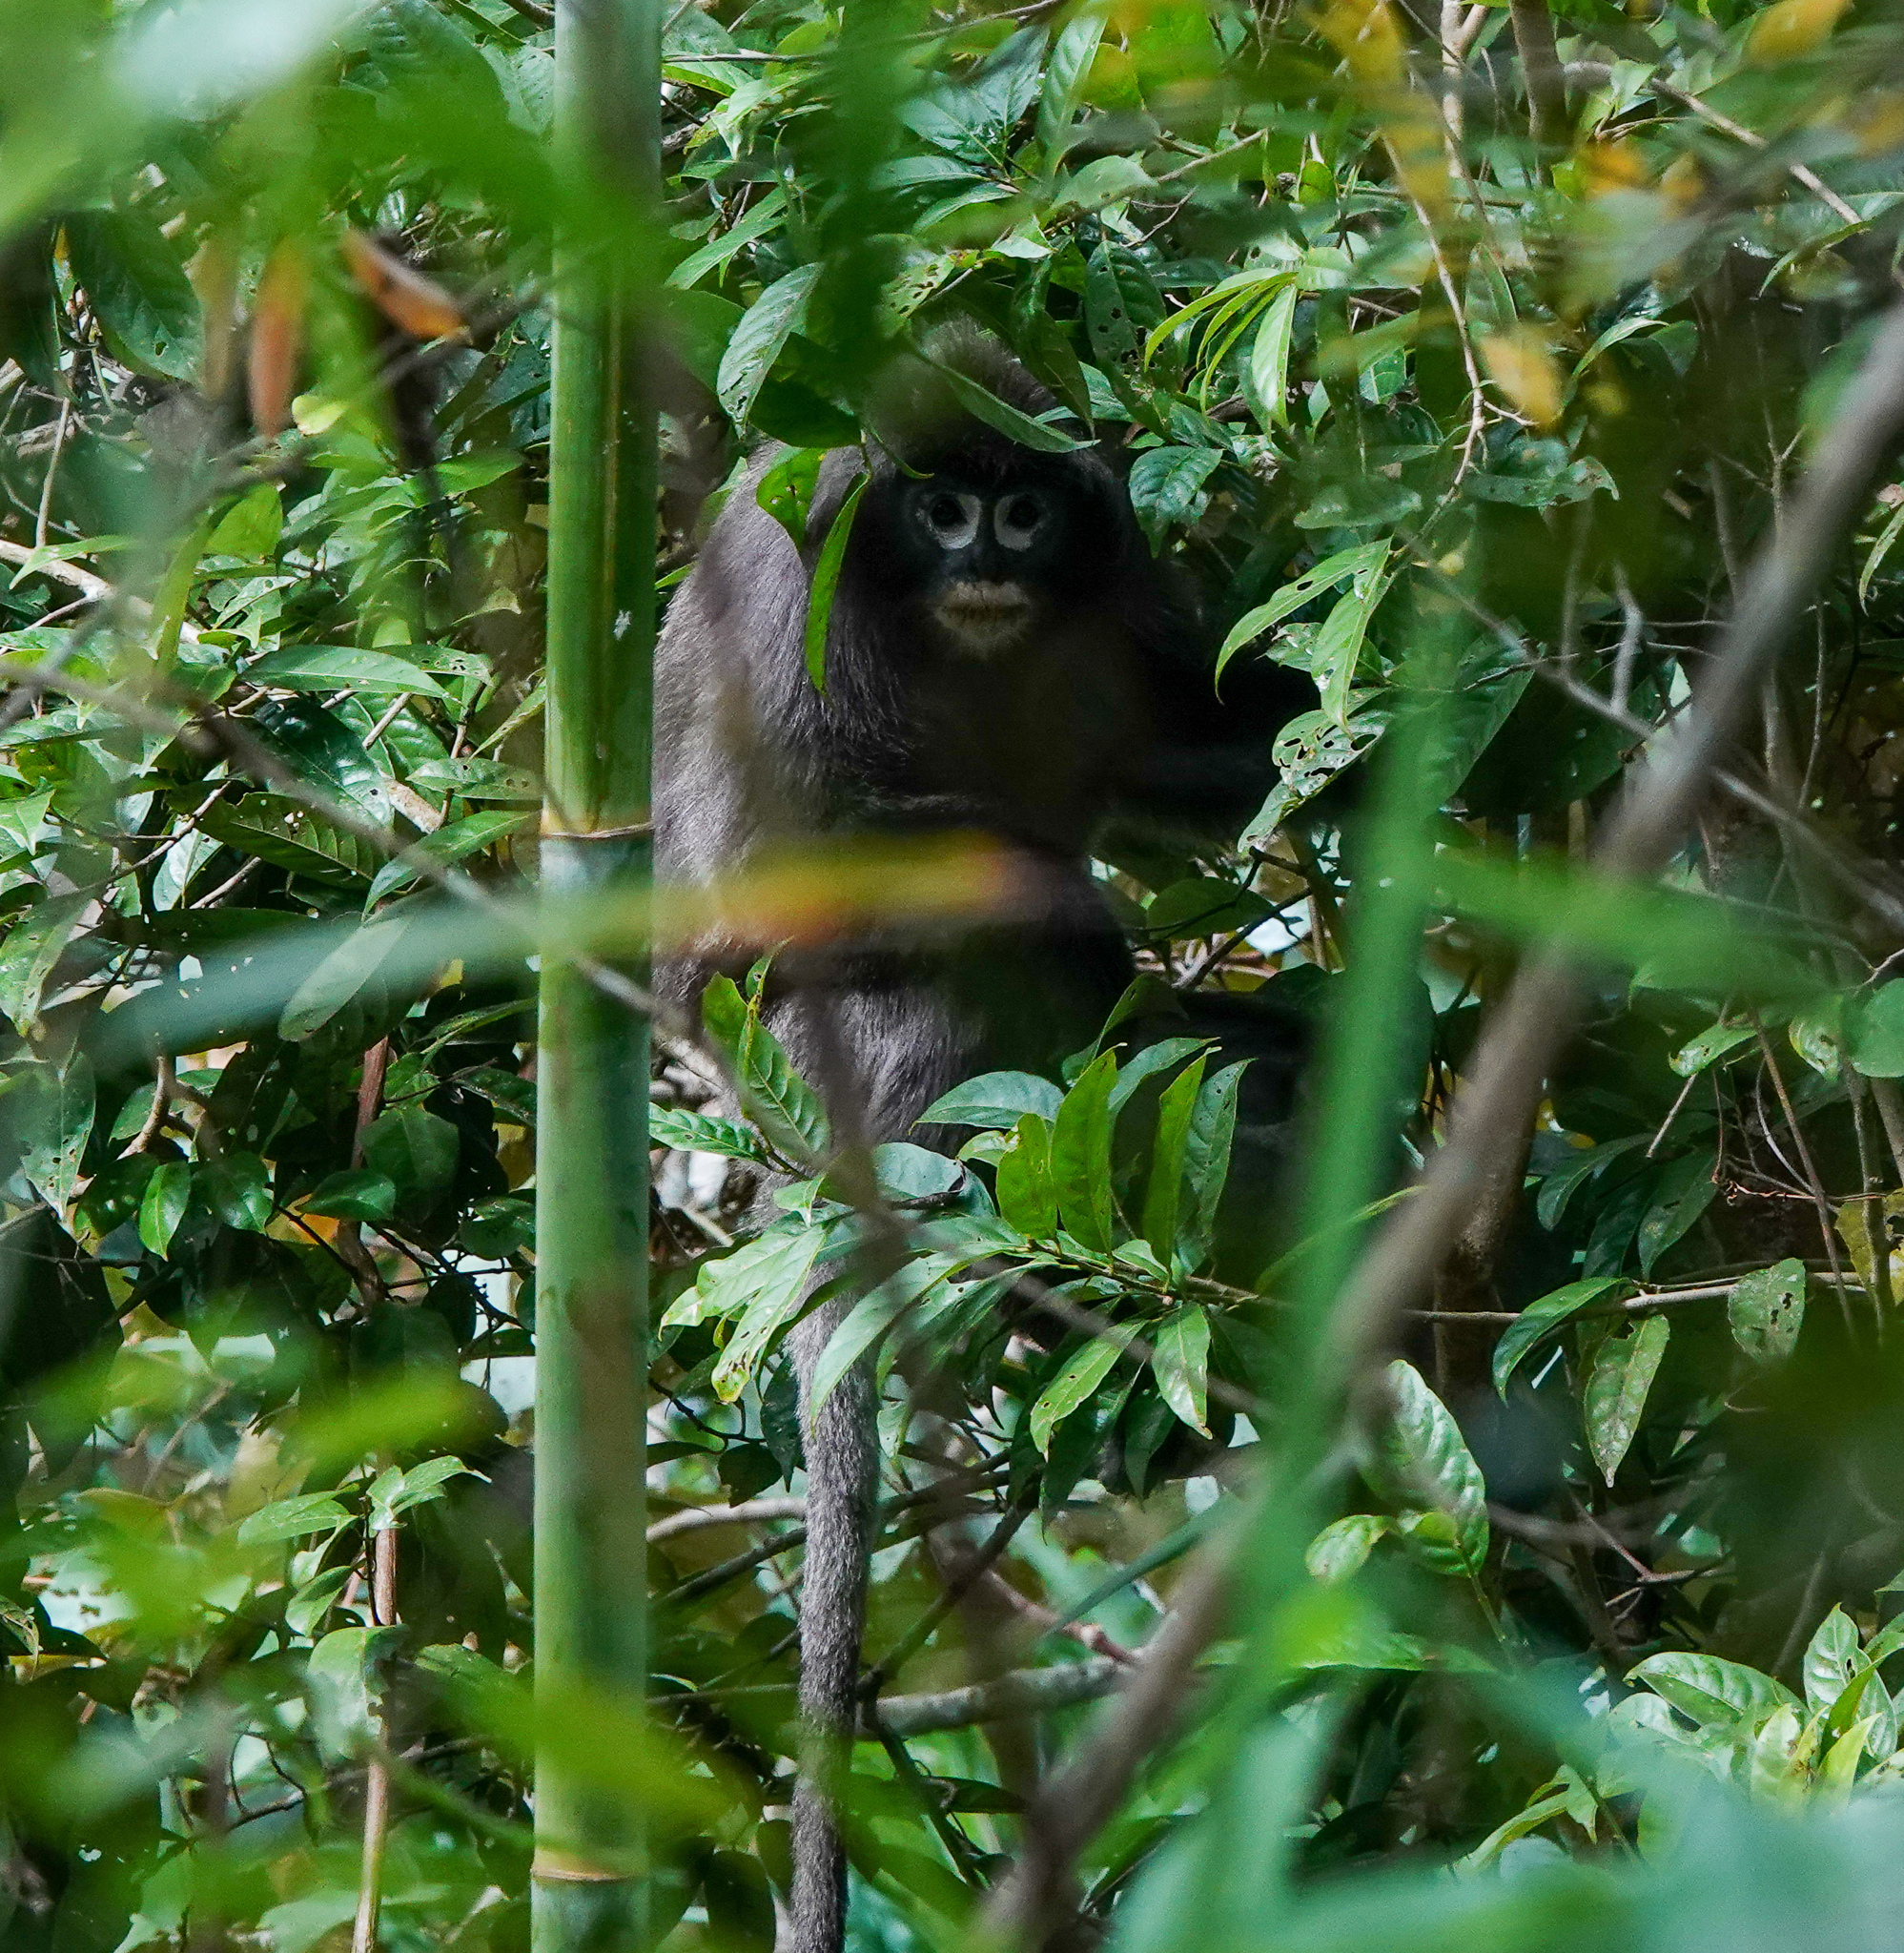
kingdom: Animalia
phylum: Chordata
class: Mammalia
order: Primates
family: Cercopithecidae
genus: Trachypithecus
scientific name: Trachypithecus phayrei
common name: Phayre's leaf monkey
